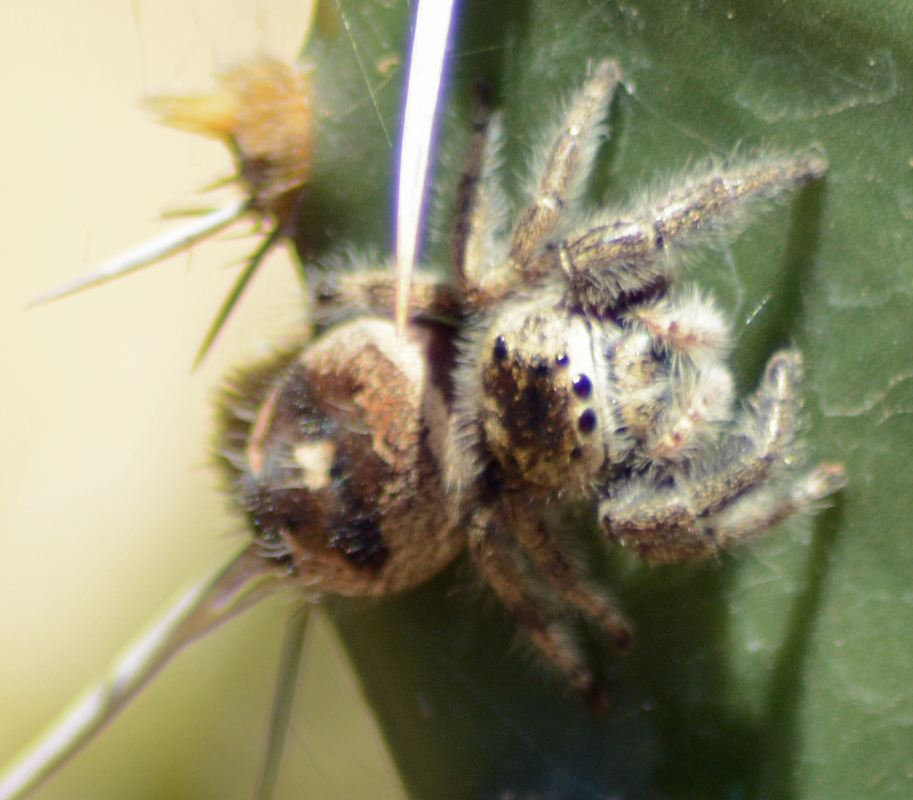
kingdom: Animalia
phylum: Arthropoda
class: Arachnida
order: Araneae
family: Salticidae
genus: Phidippus
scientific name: Phidippus maddisoni
